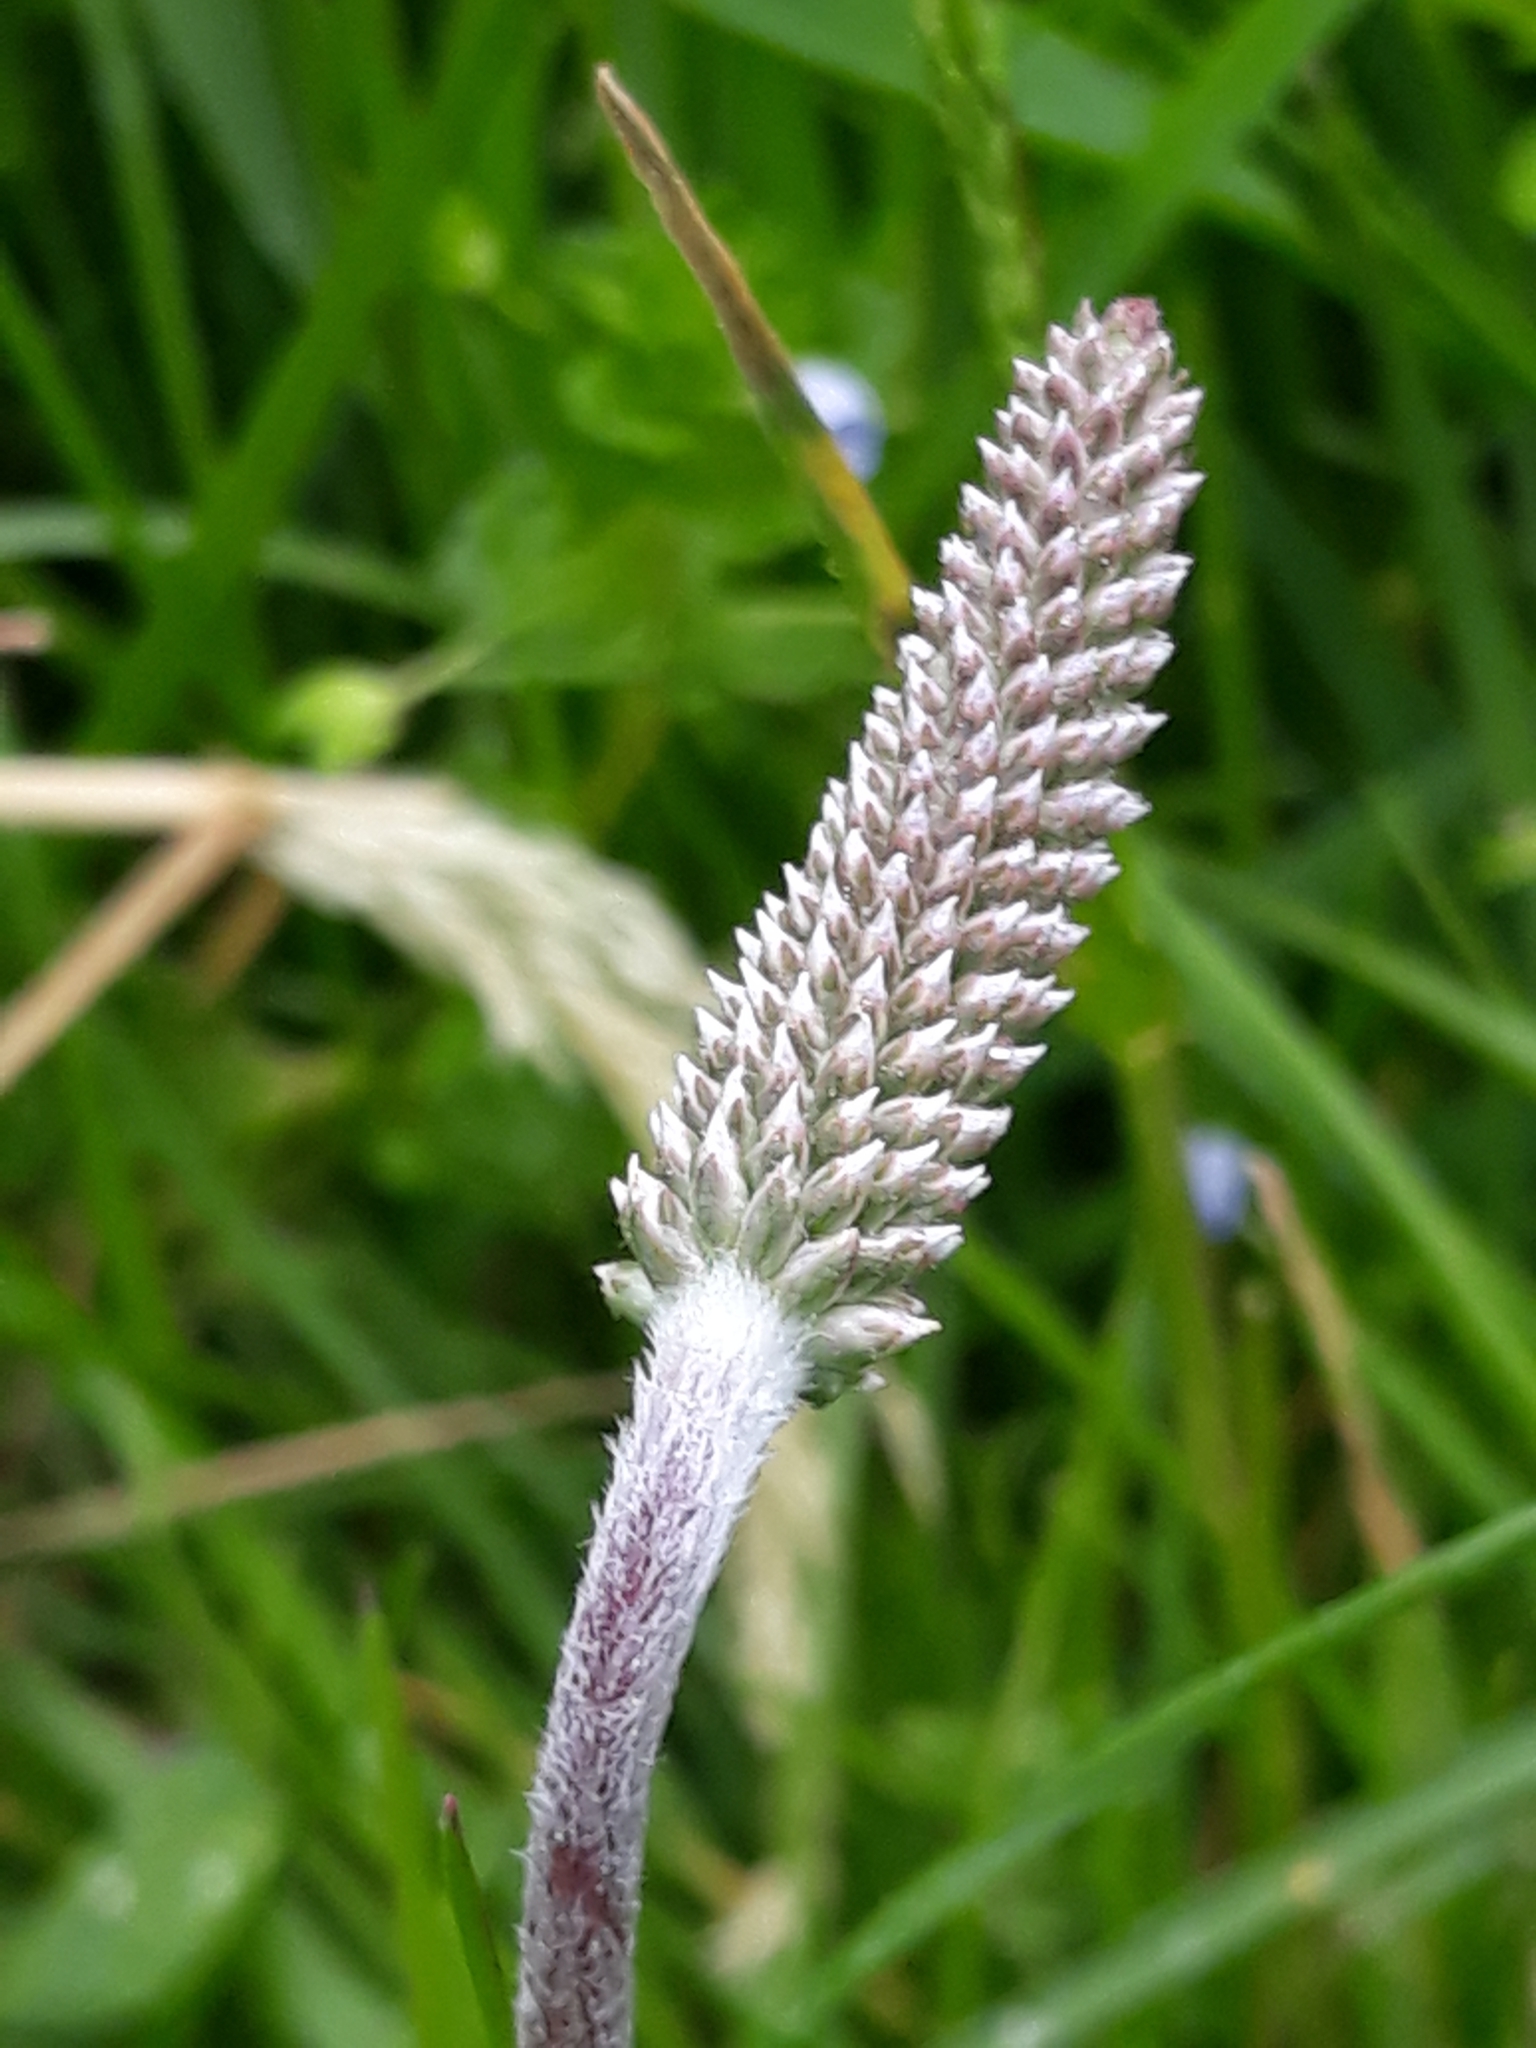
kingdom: Plantae
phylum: Tracheophyta
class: Magnoliopsida
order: Lamiales
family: Plantaginaceae
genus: Plantago
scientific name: Plantago media
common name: Hoary plantain
